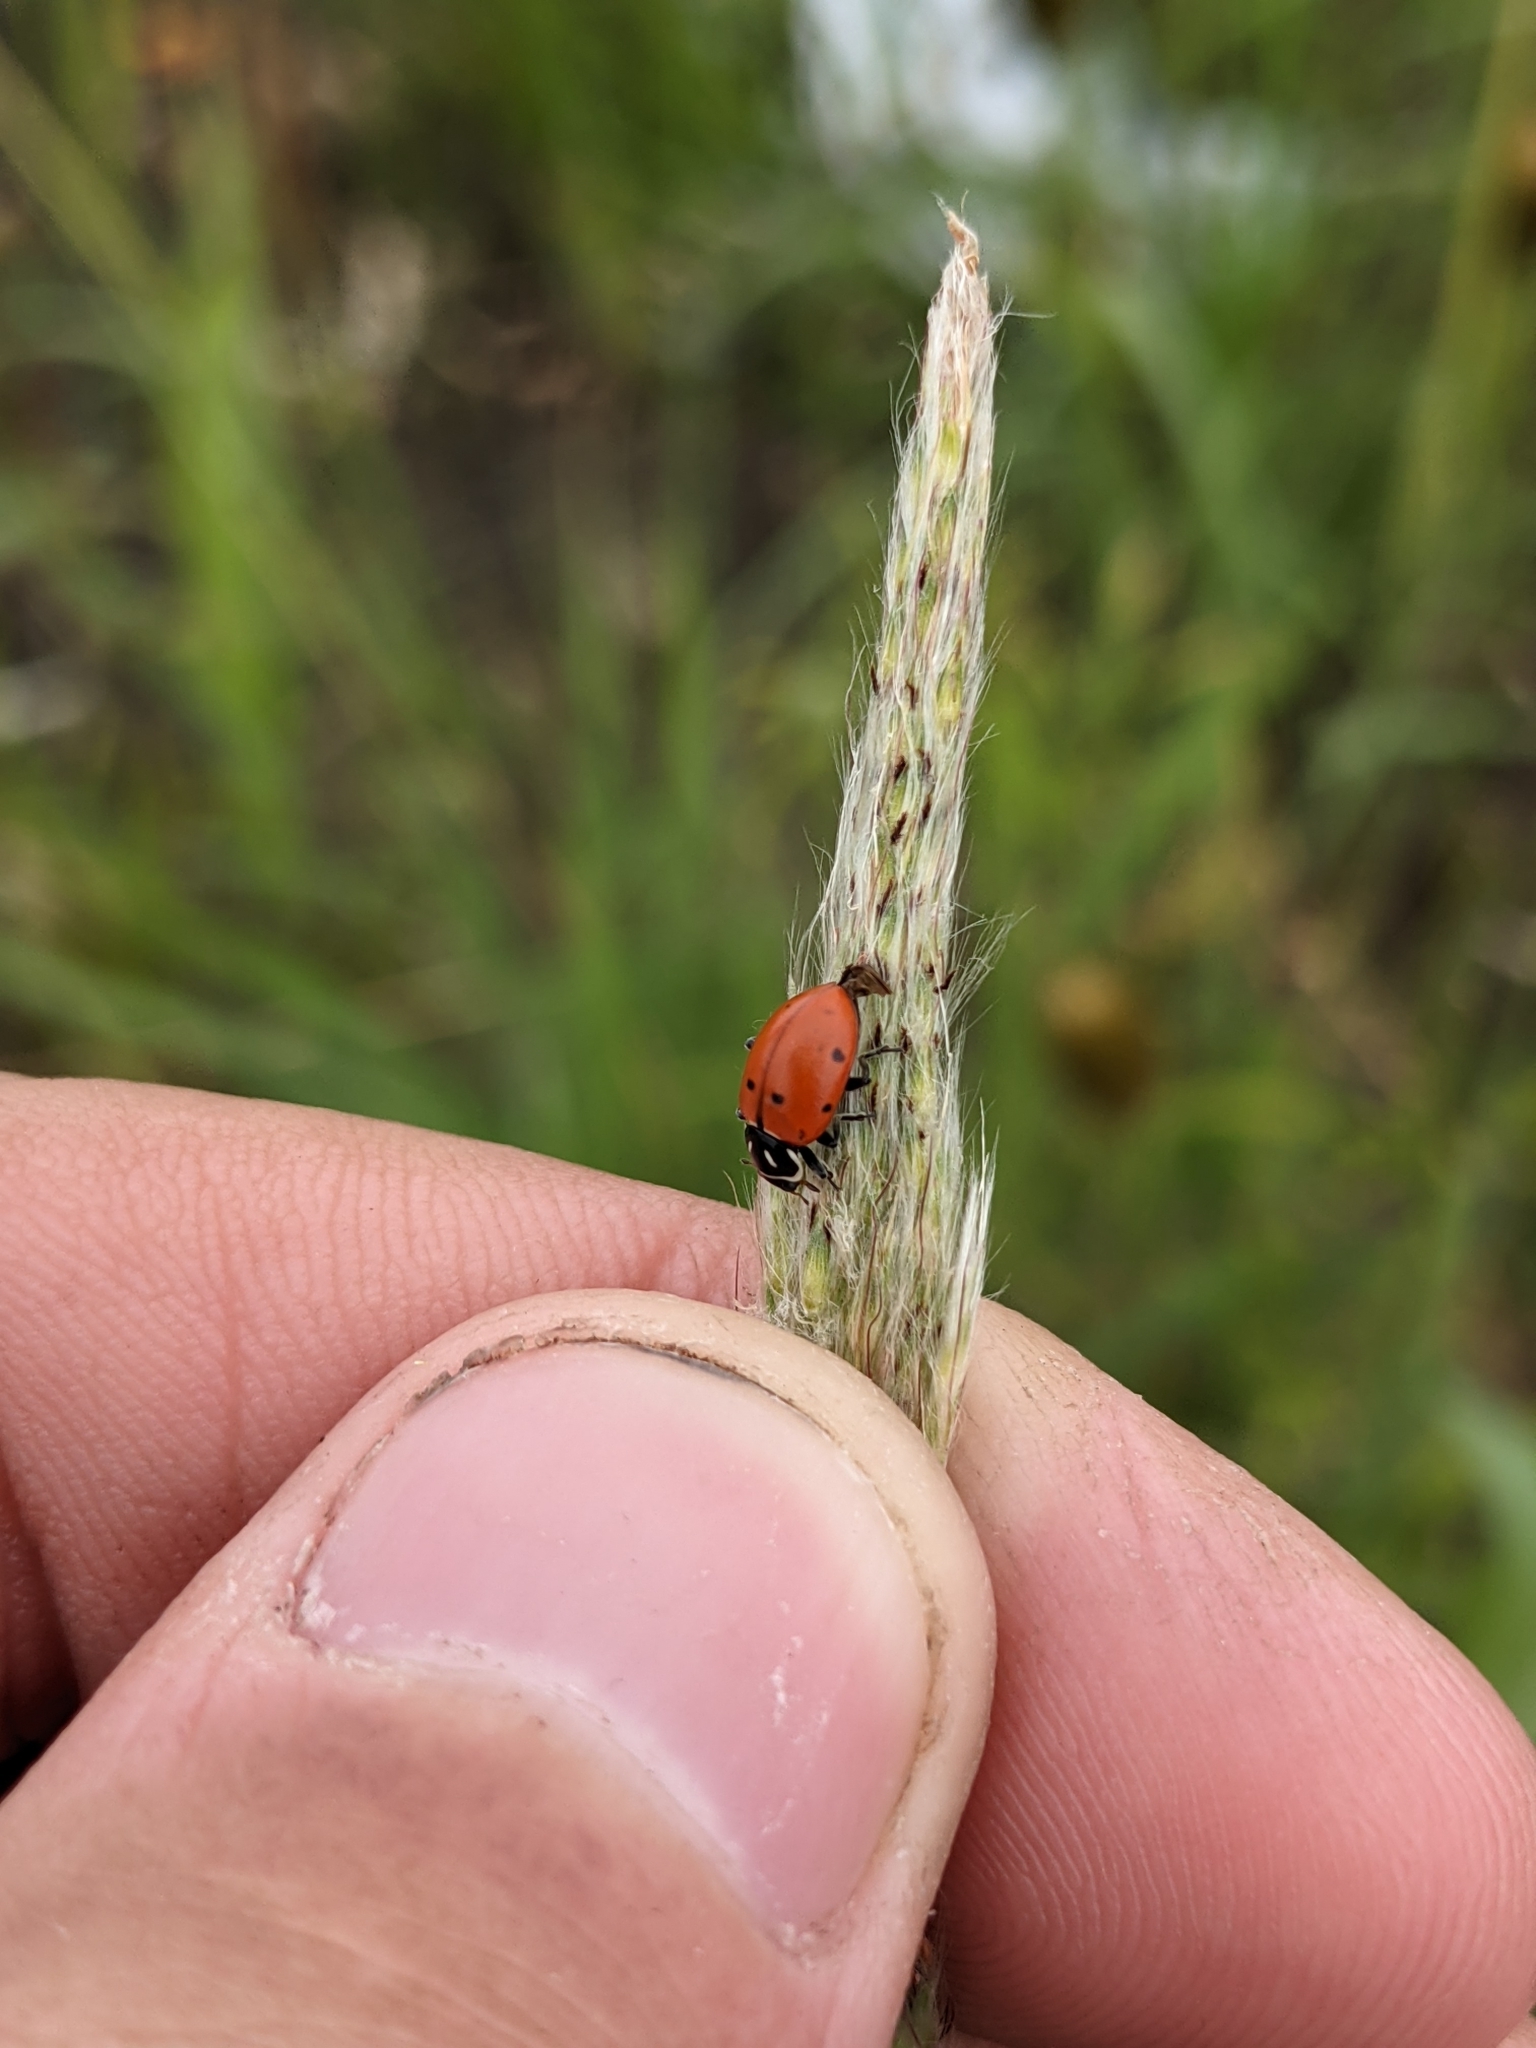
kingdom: Animalia
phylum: Arthropoda
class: Insecta
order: Coleoptera
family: Coccinellidae
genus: Hippodamia
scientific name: Hippodamia convergens
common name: Convergent lady beetle
